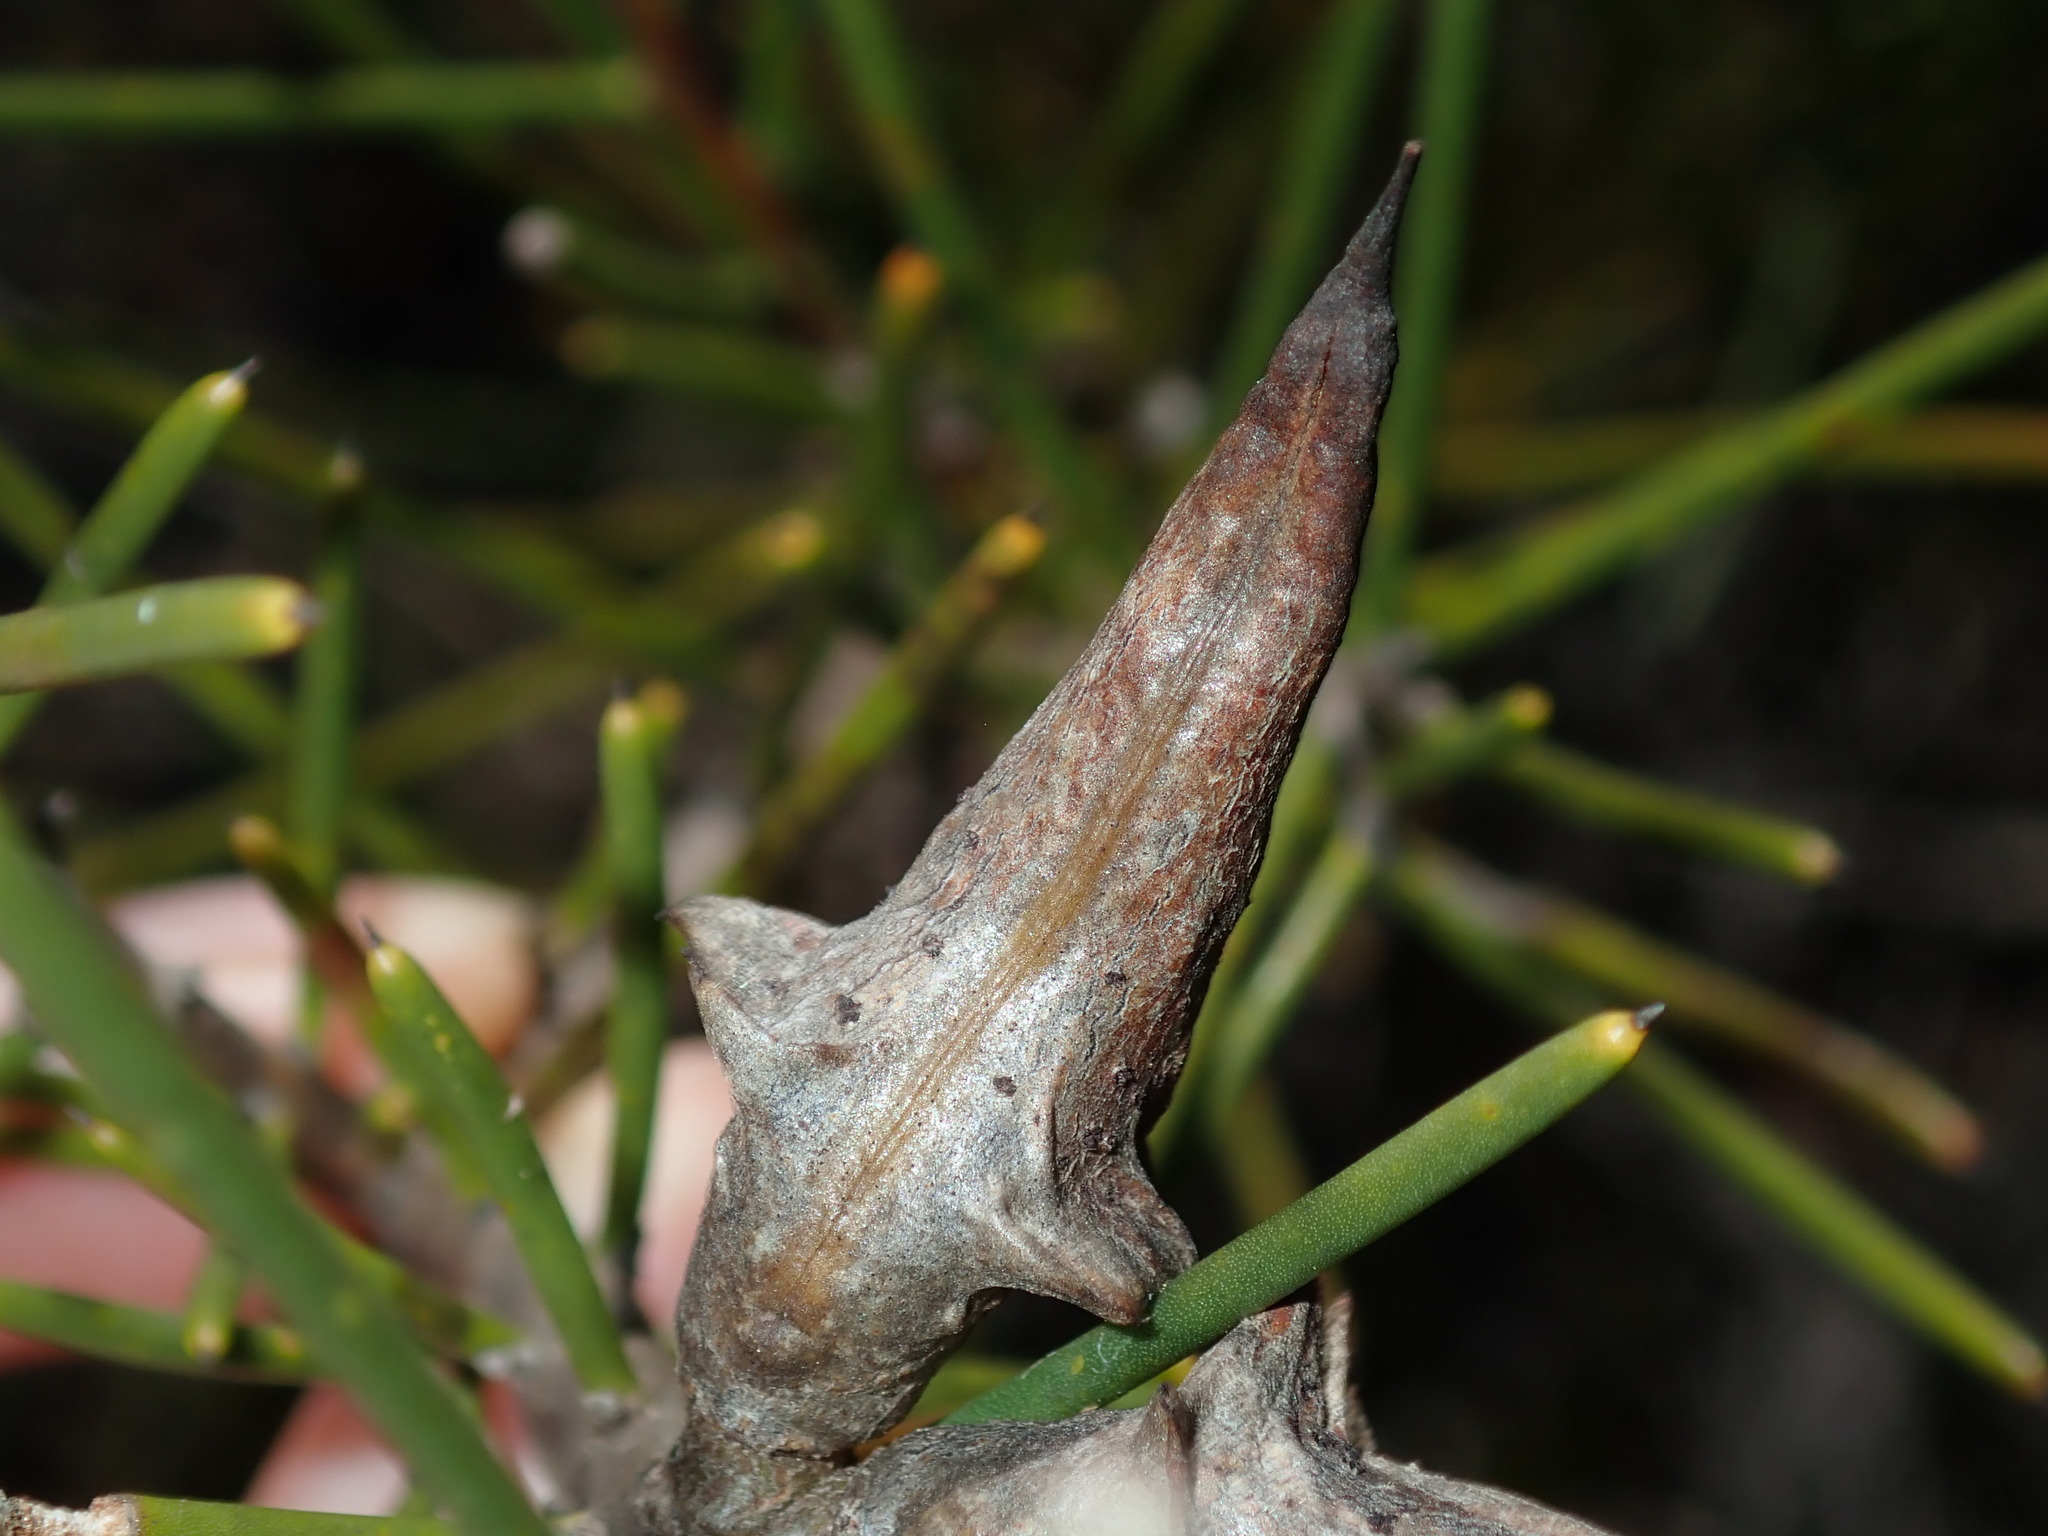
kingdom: Plantae
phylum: Tracheophyta
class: Magnoliopsida
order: Proteales
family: Proteaceae
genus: Hakea
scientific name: Hakea teretifolia
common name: Dagger hakea
